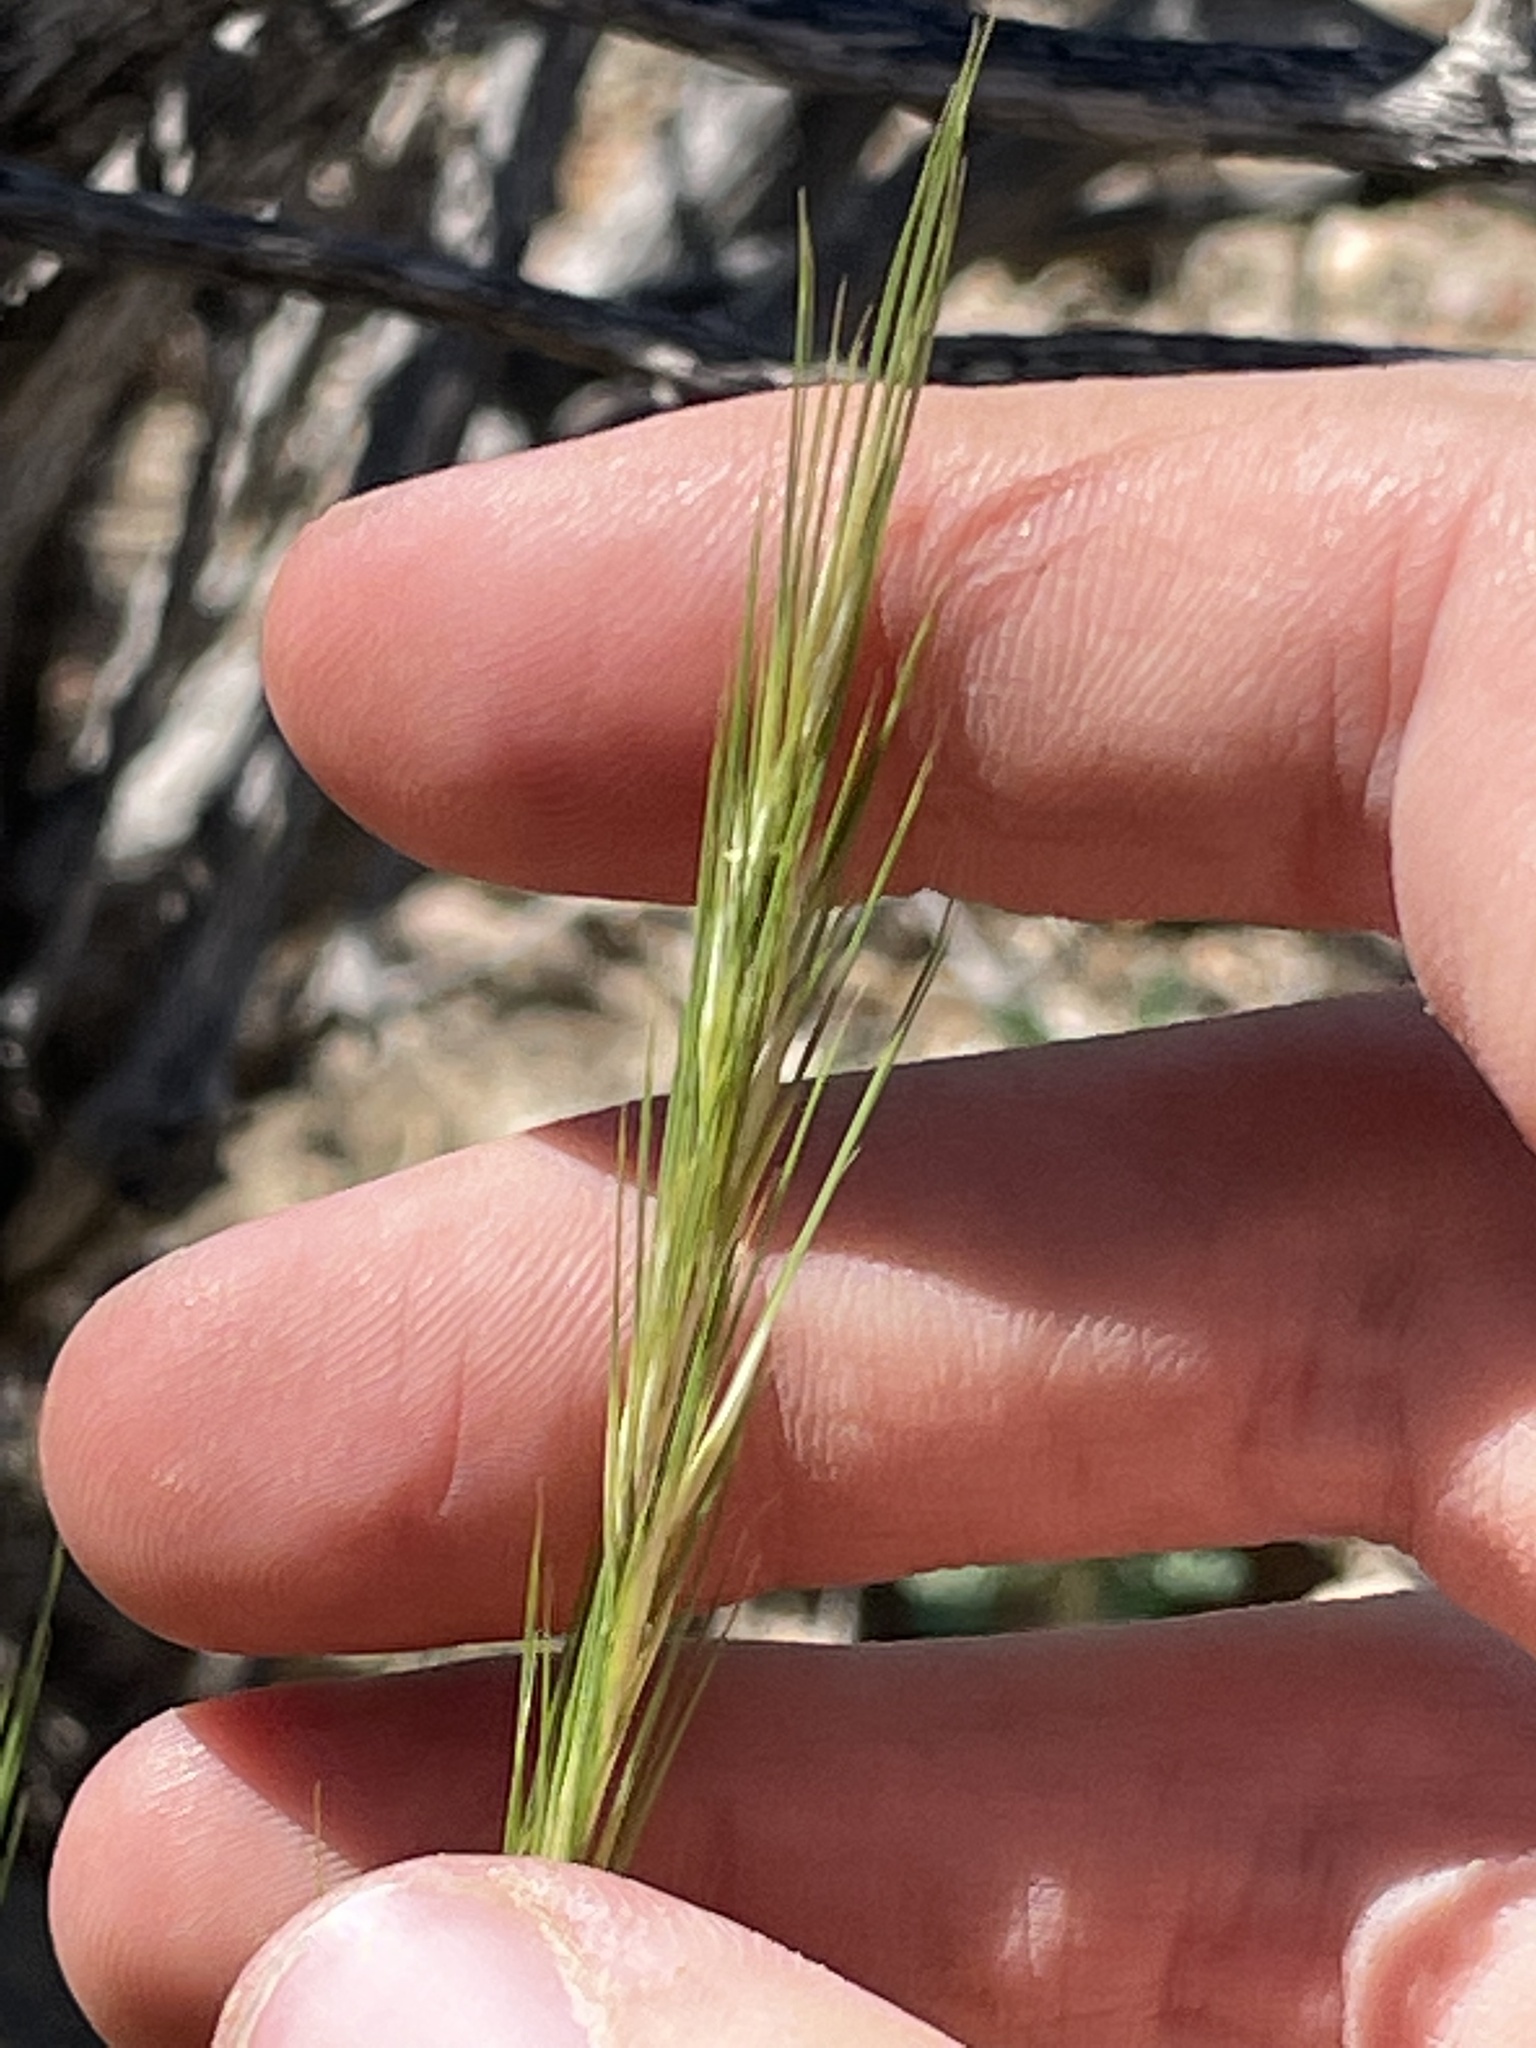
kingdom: Plantae
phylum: Tracheophyta
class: Liliopsida
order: Poales
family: Poaceae
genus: Aristida
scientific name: Aristida purpurea
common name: Purple threeawn
